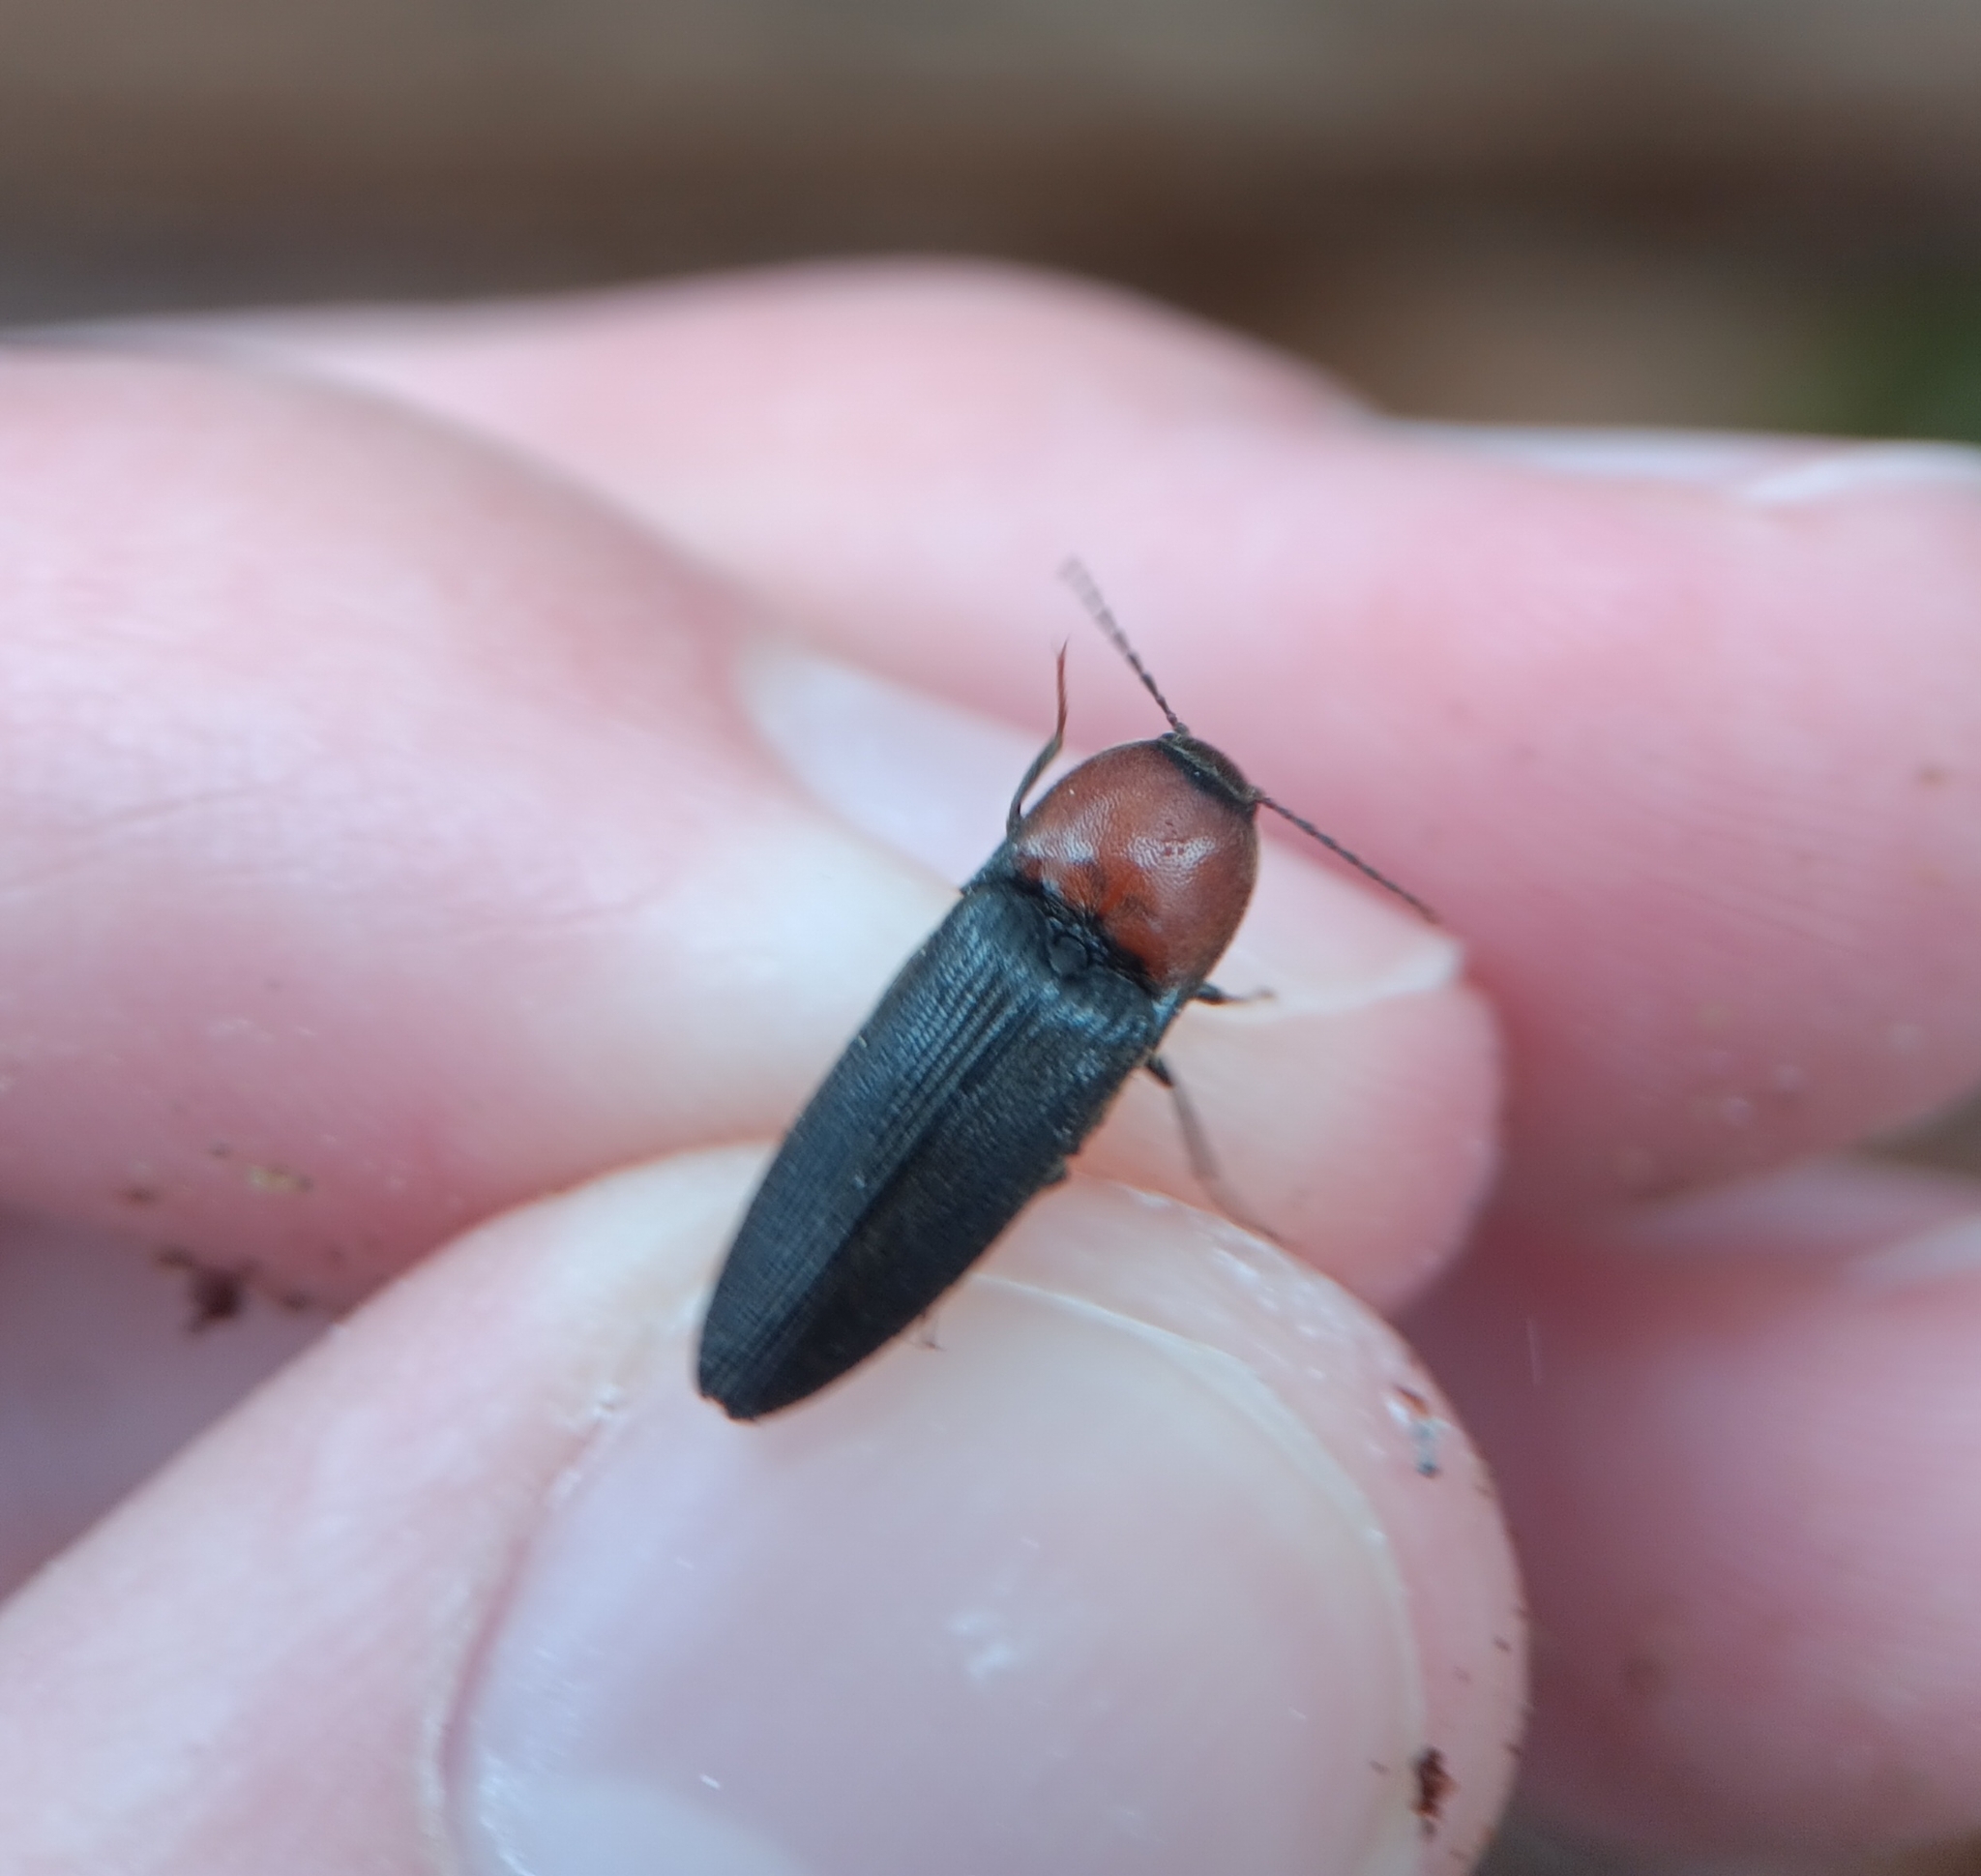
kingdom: Animalia
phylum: Arthropoda
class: Insecta
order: Coleoptera
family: Elateridae
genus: Ampedus
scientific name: Ampedus rubricollis
